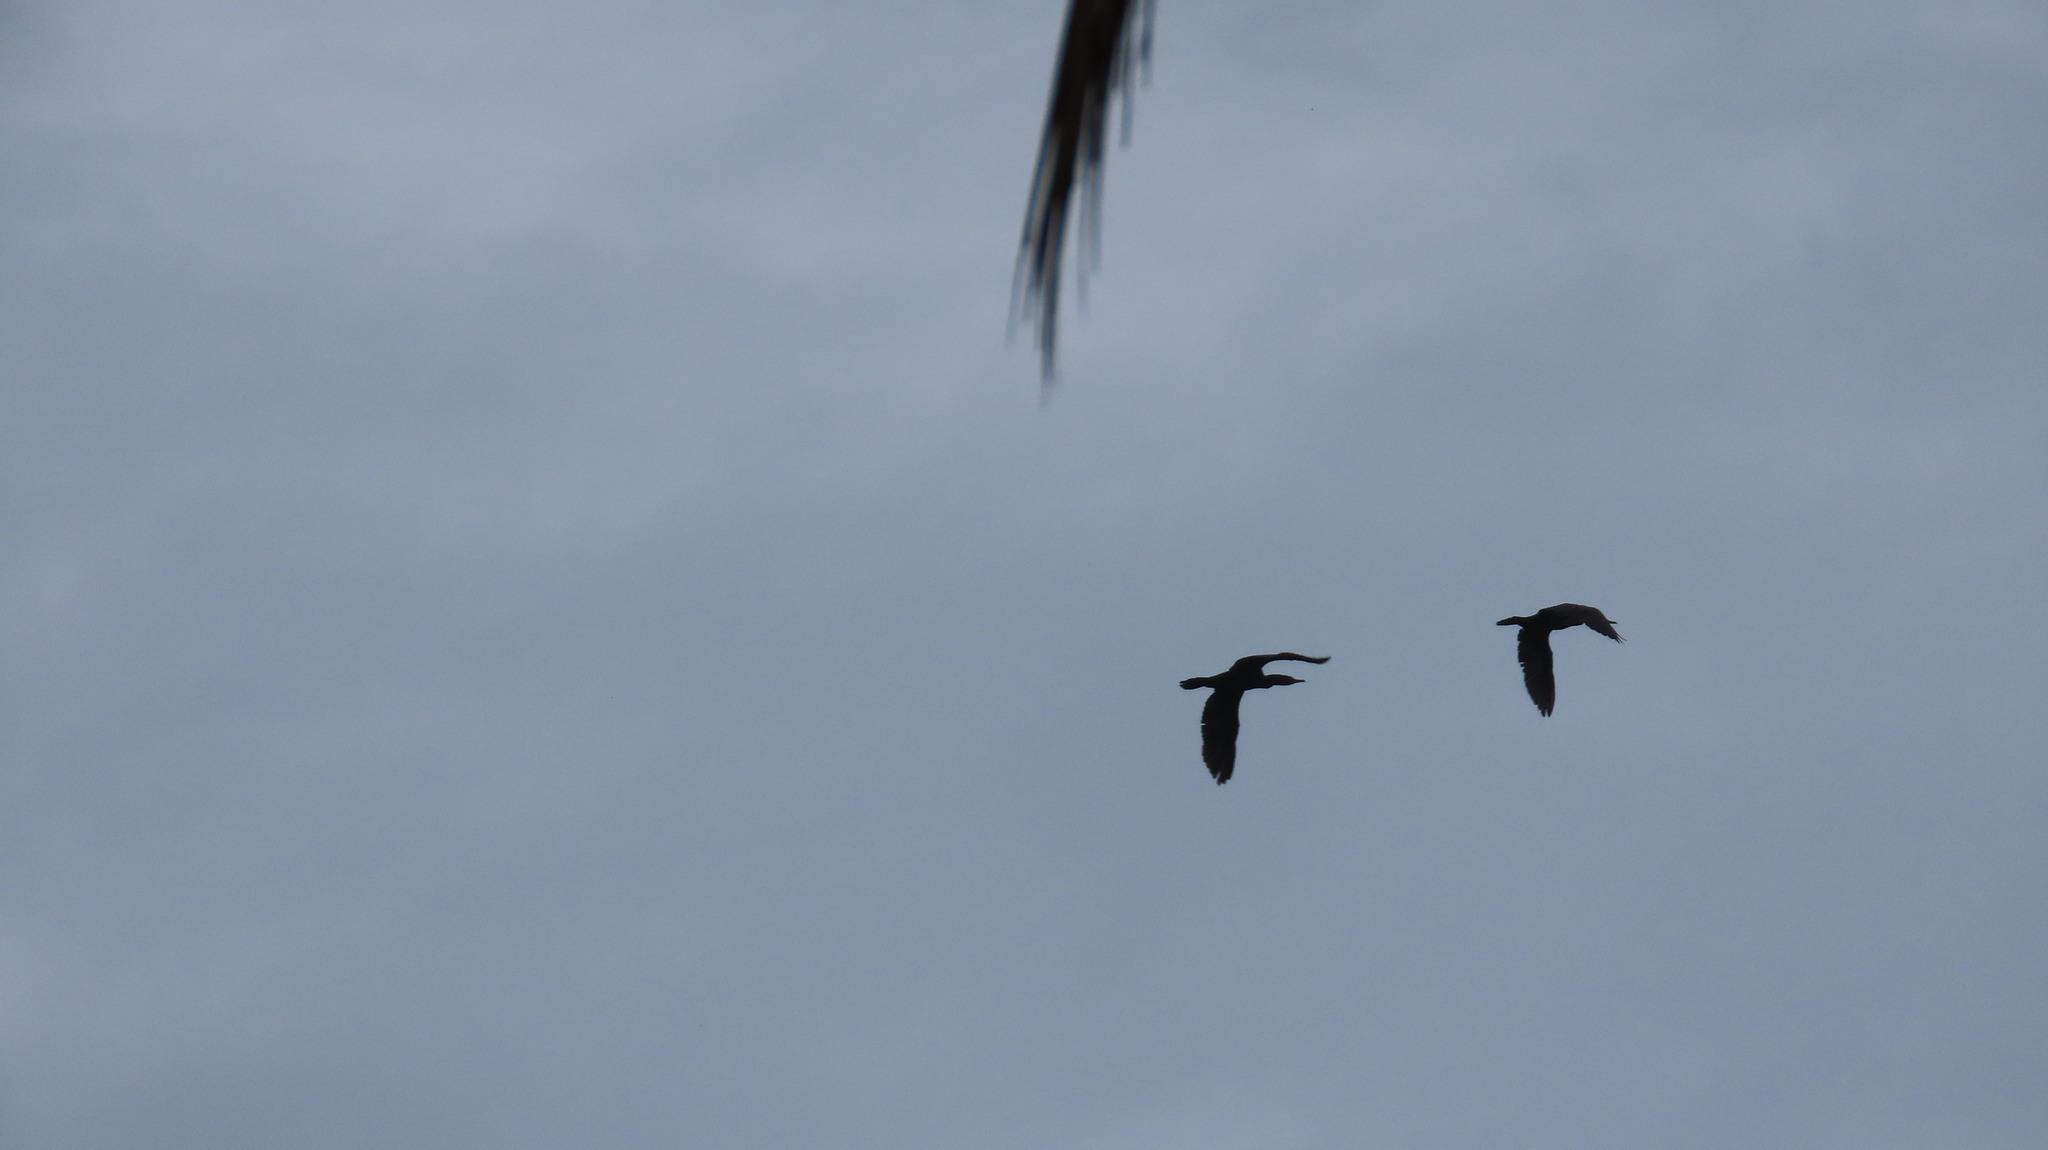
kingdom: Animalia
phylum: Chordata
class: Aves
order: Suliformes
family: Phalacrocoracidae
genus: Phalacrocorax
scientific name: Phalacrocorax fuscicollis
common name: Indian cormorant
